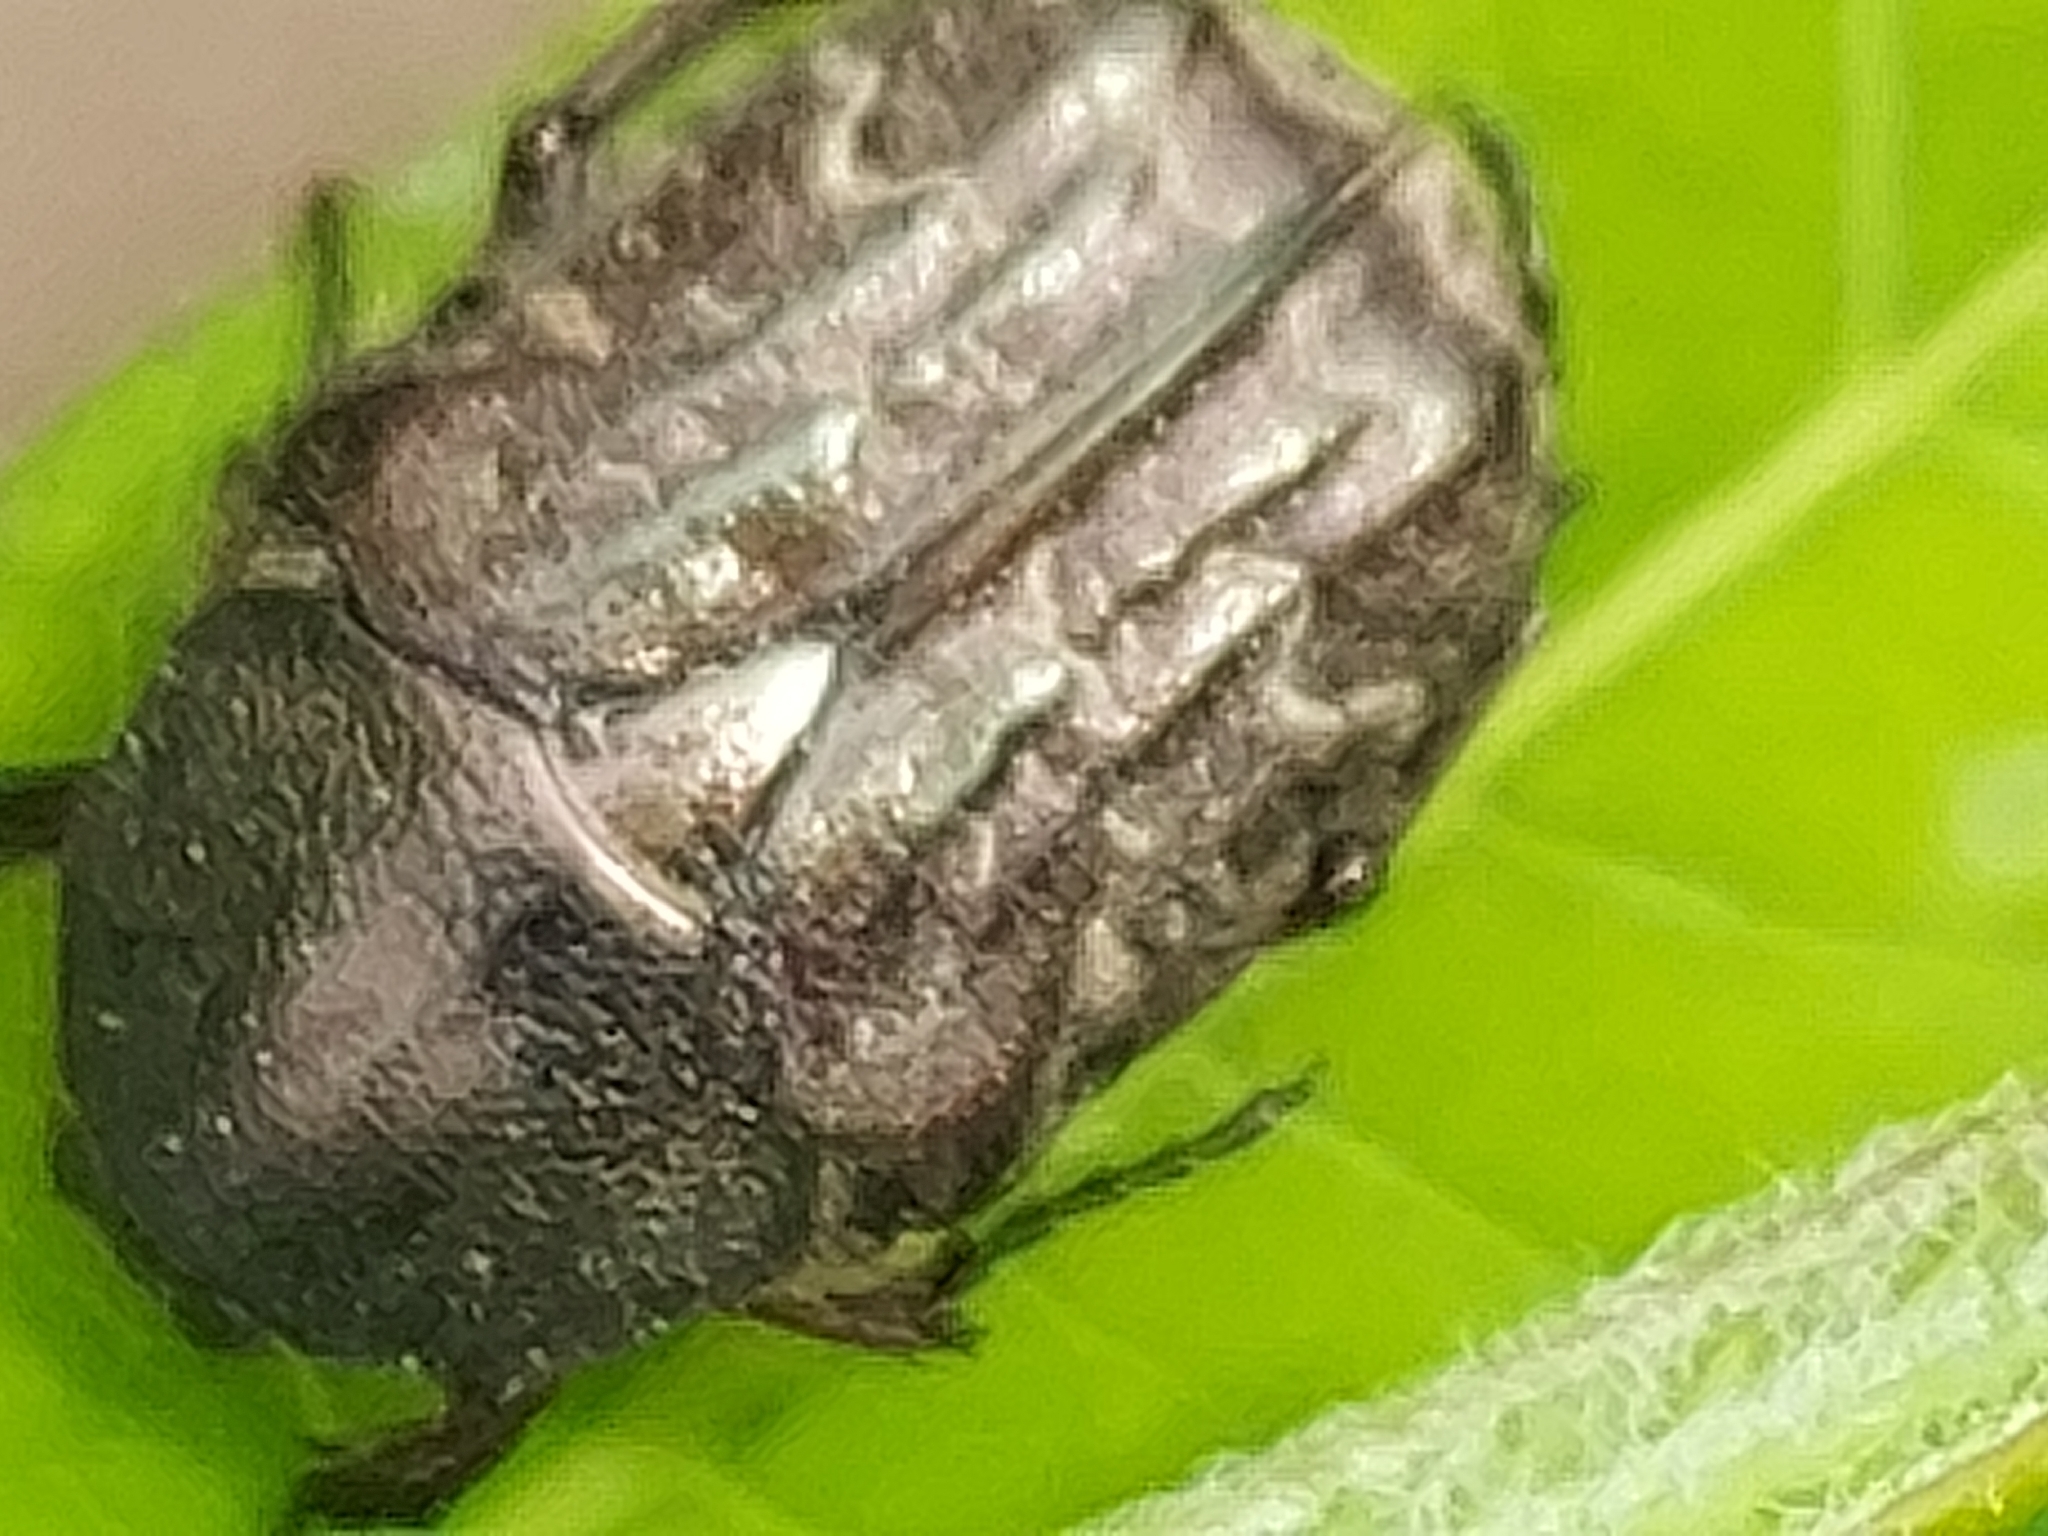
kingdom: Animalia
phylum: Arthropoda
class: Insecta
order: Coleoptera
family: Scarabaeidae
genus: Euphoria
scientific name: Euphoria sepulcralis
